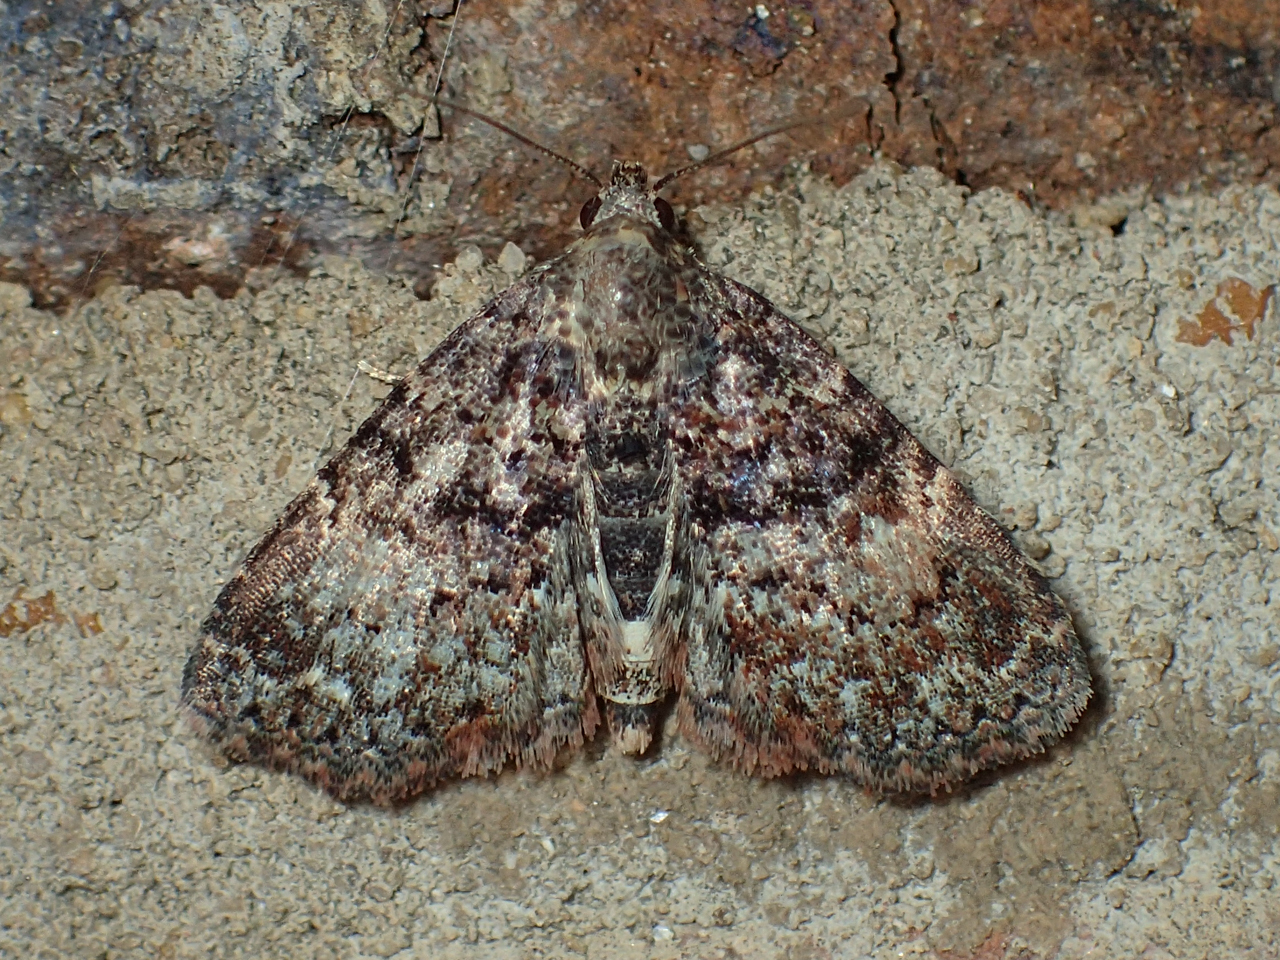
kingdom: Animalia
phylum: Arthropoda
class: Insecta
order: Lepidoptera
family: Erebidae
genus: Metalectra
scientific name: Metalectra richardsi
